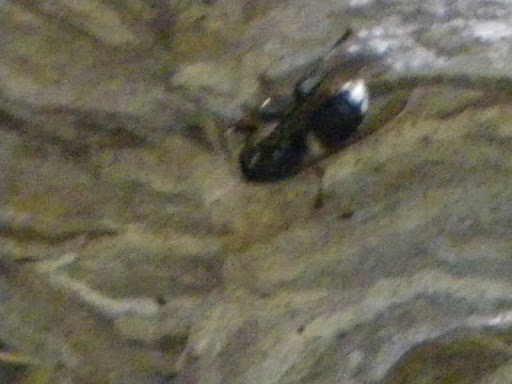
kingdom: Animalia
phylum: Arthropoda
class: Insecta
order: Hymenoptera
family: Vespidae
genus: Dolichovespula
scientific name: Dolichovespula maculata
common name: Bald-faced hornet
